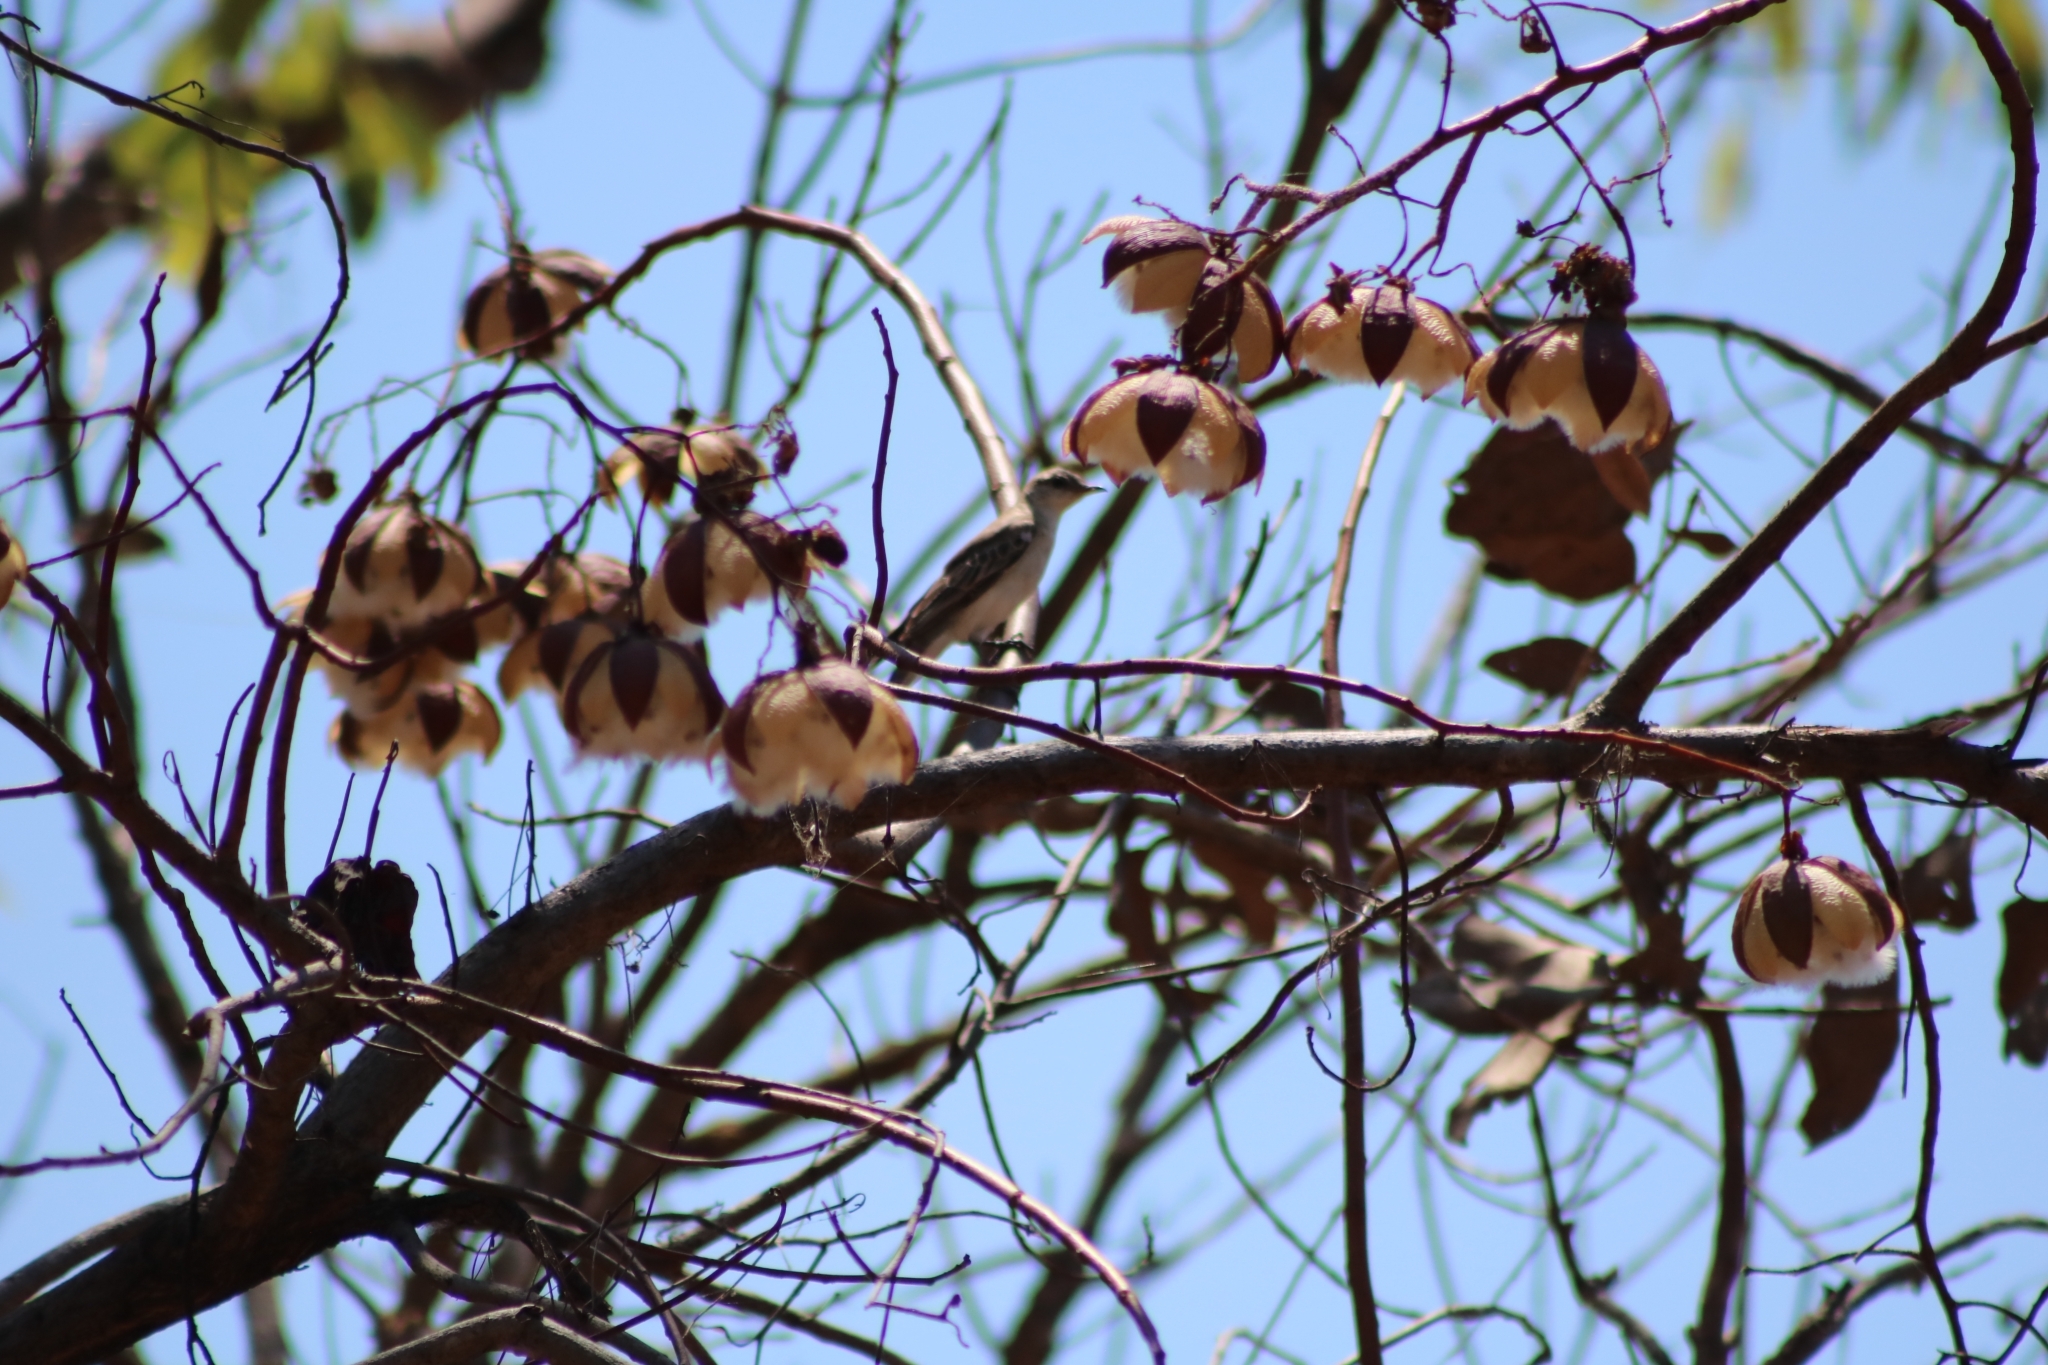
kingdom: Animalia
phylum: Chordata
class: Aves
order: Passeriformes
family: Campephagidae
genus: Lalage
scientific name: Lalage tricolor
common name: White-winged triller
